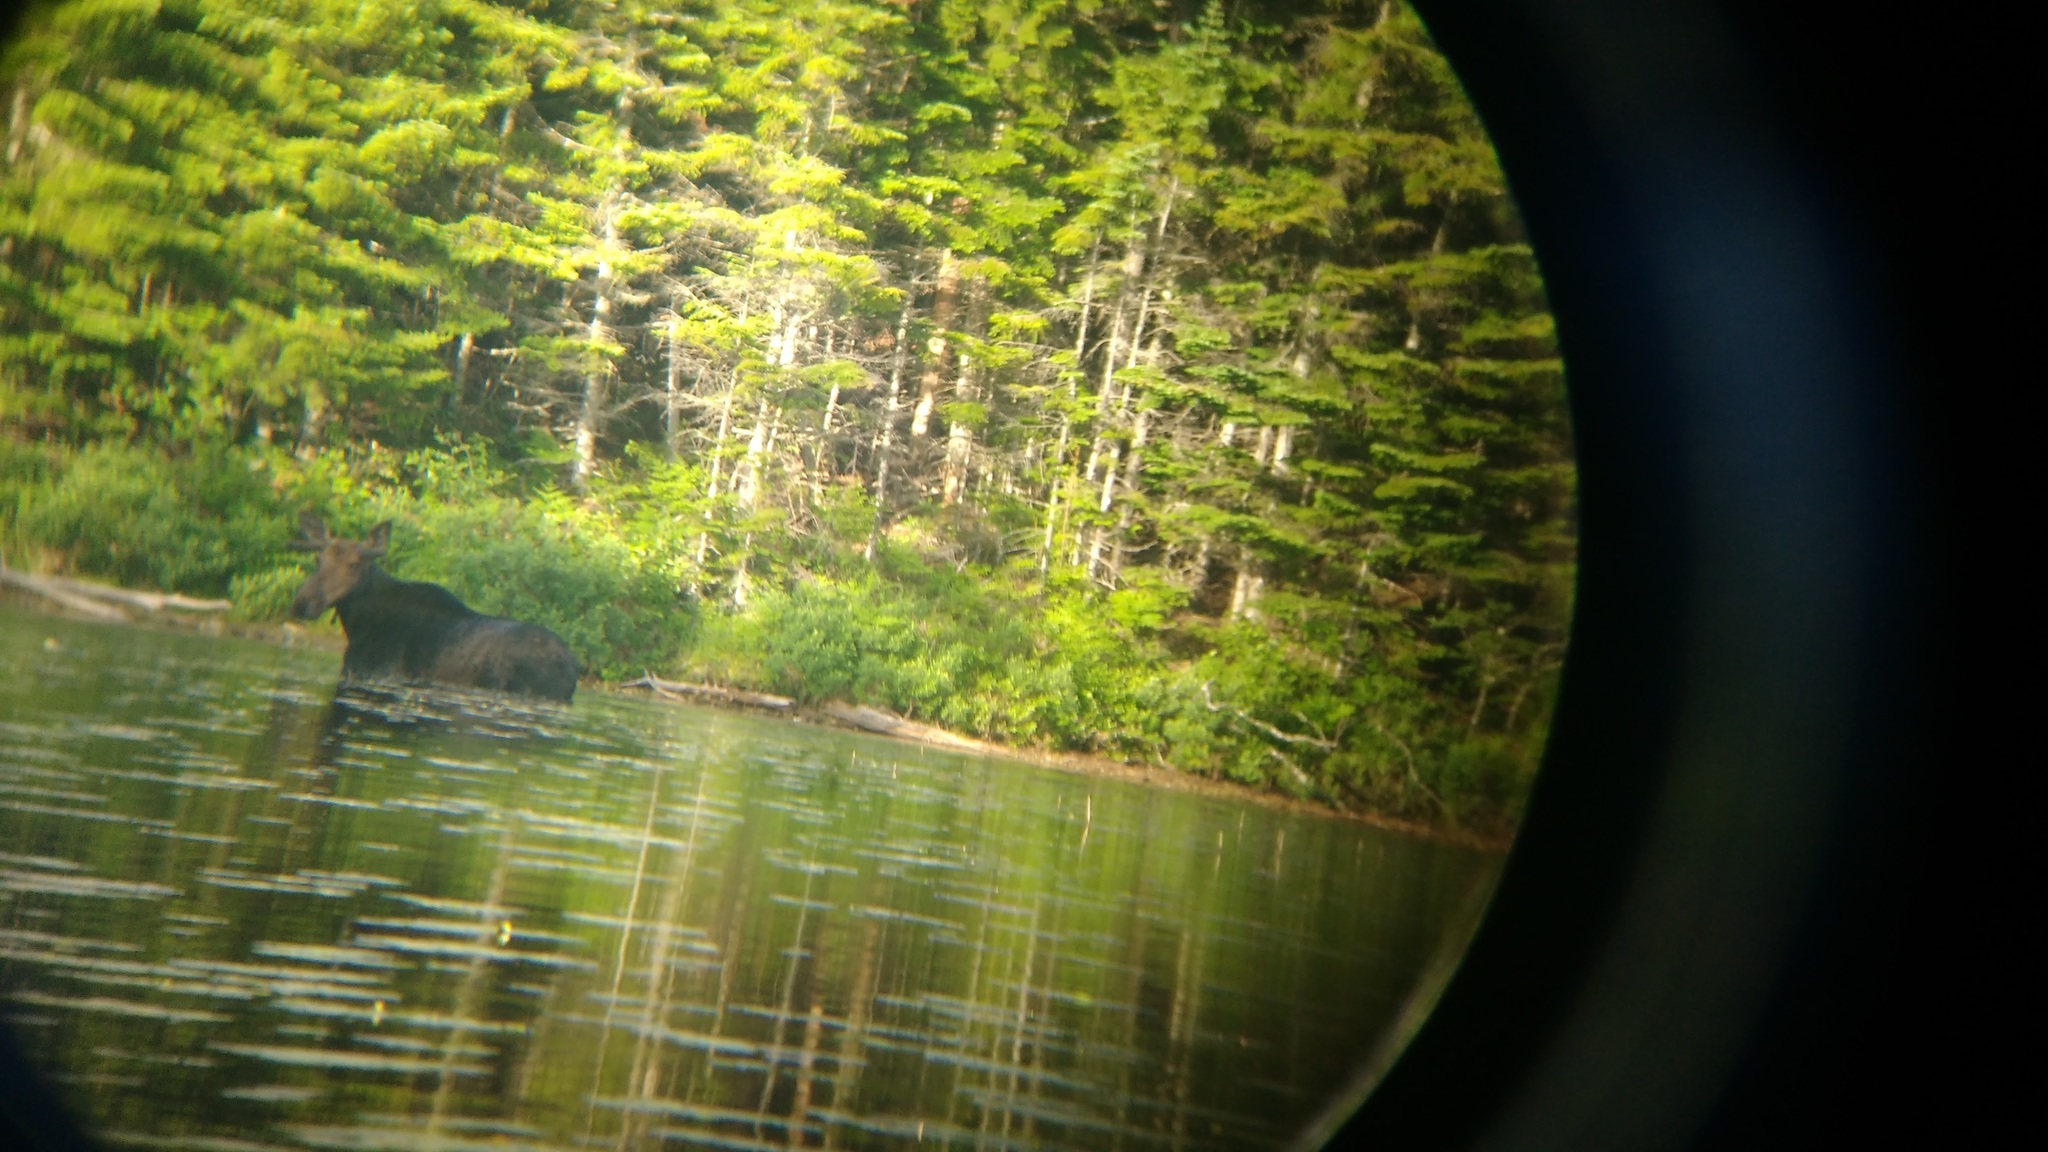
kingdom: Animalia
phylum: Chordata
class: Mammalia
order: Artiodactyla
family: Cervidae
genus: Alces
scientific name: Alces americanus
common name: Moose
